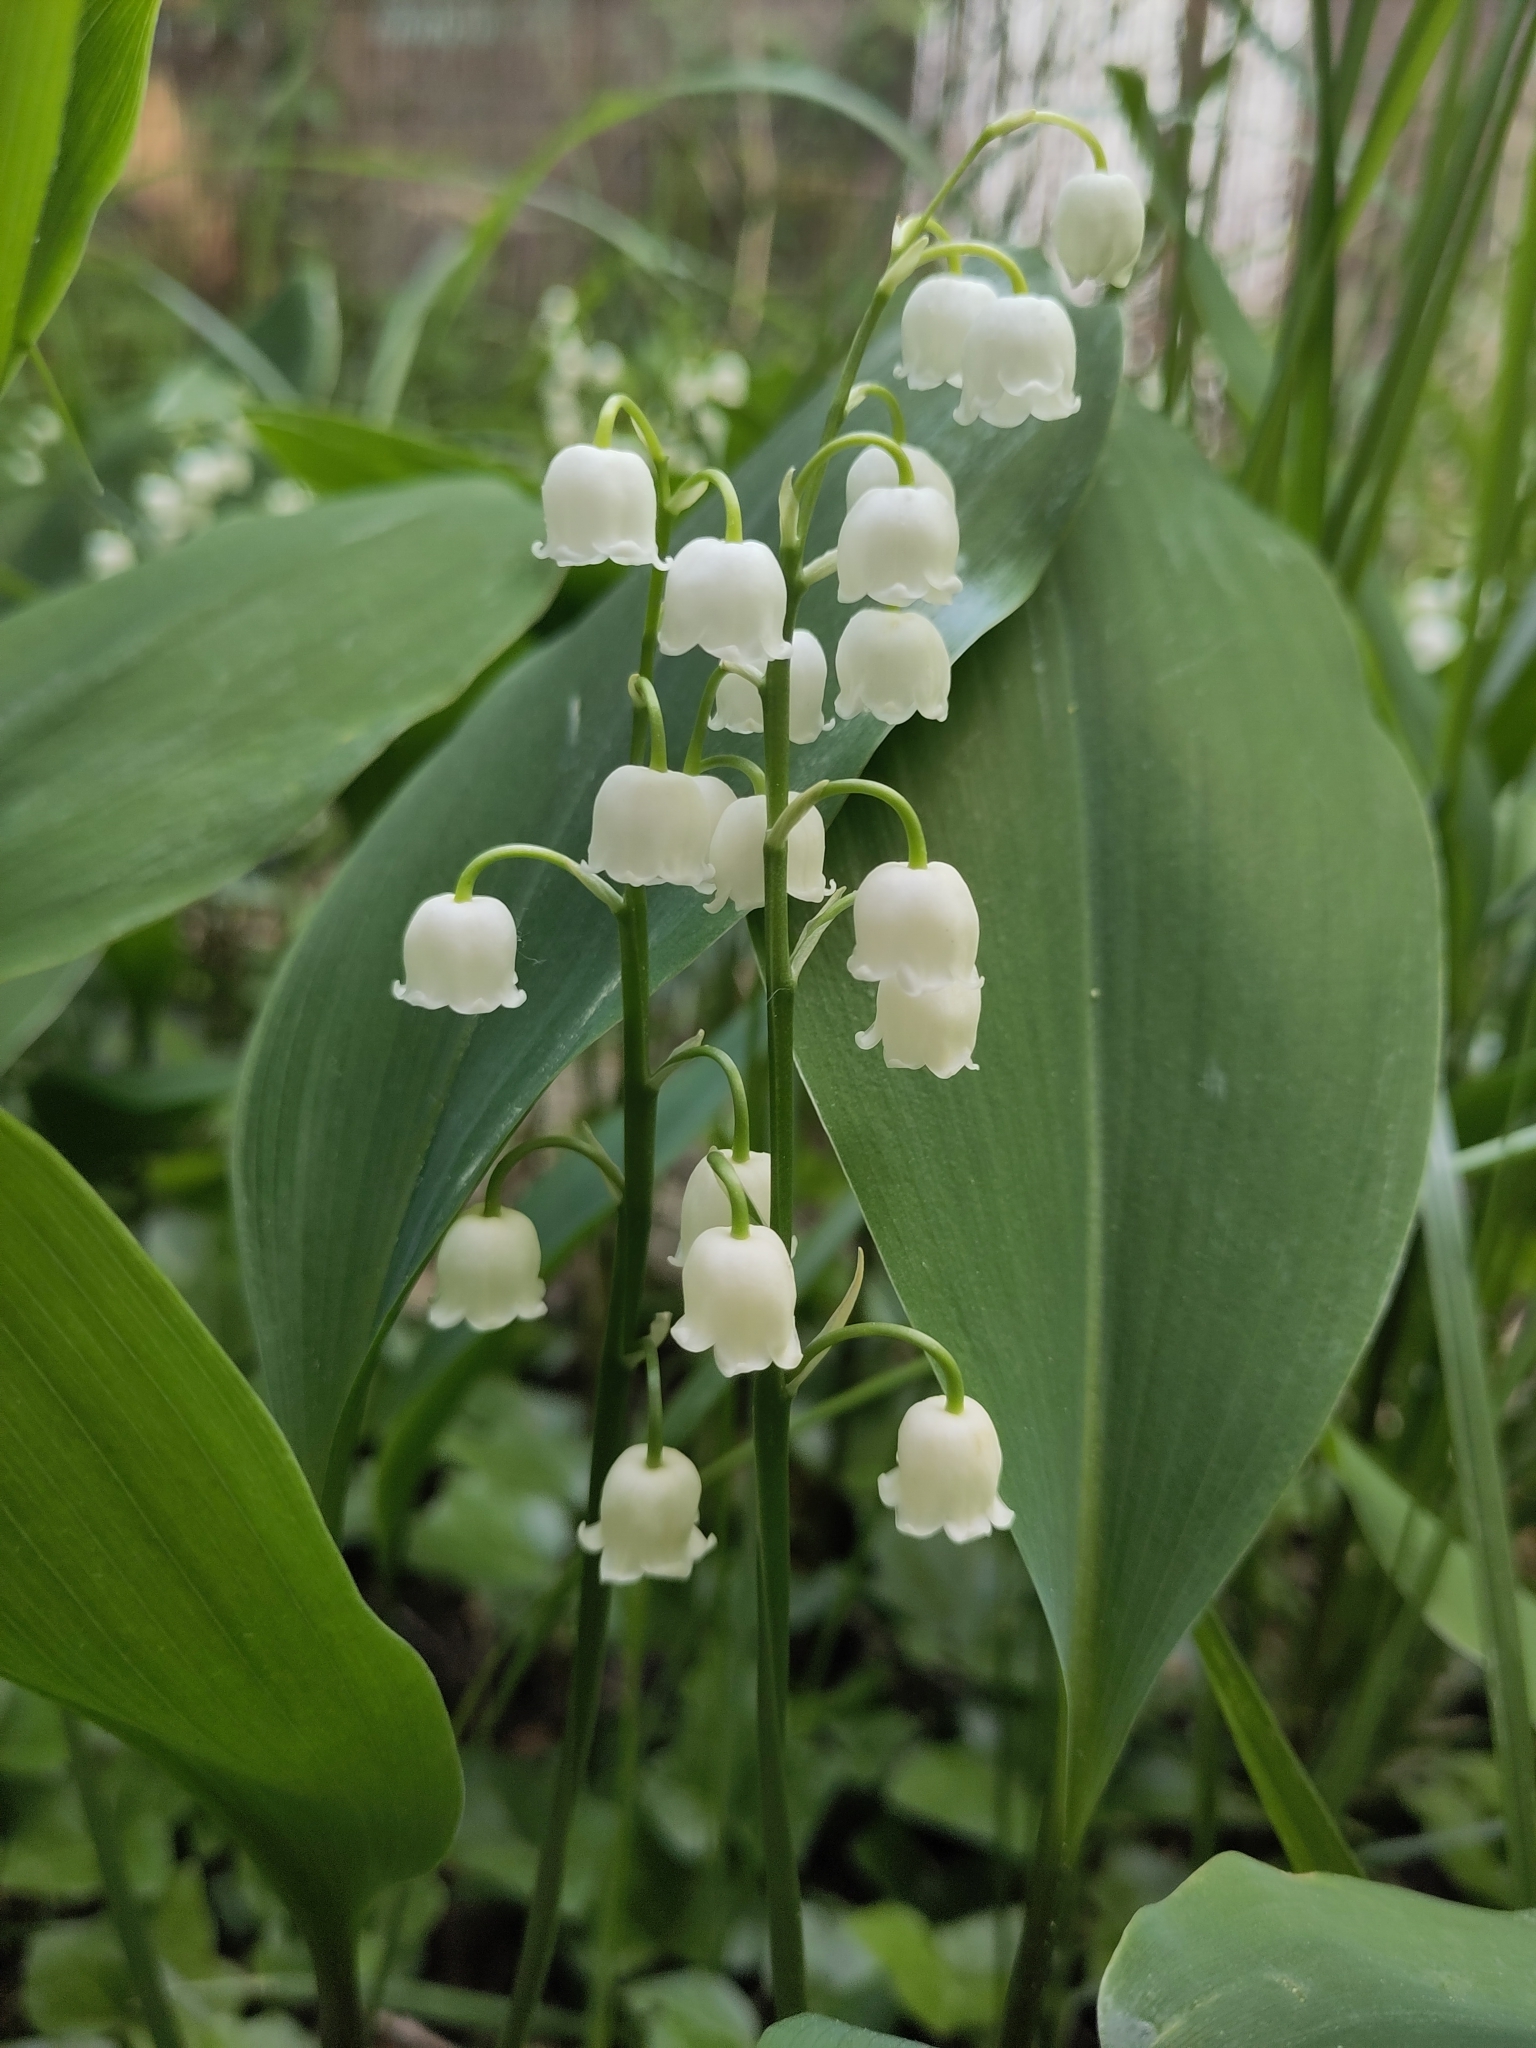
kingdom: Plantae
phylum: Tracheophyta
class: Liliopsida
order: Asparagales
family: Asparagaceae
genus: Convallaria
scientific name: Convallaria majalis
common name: Lily-of-the-valley
